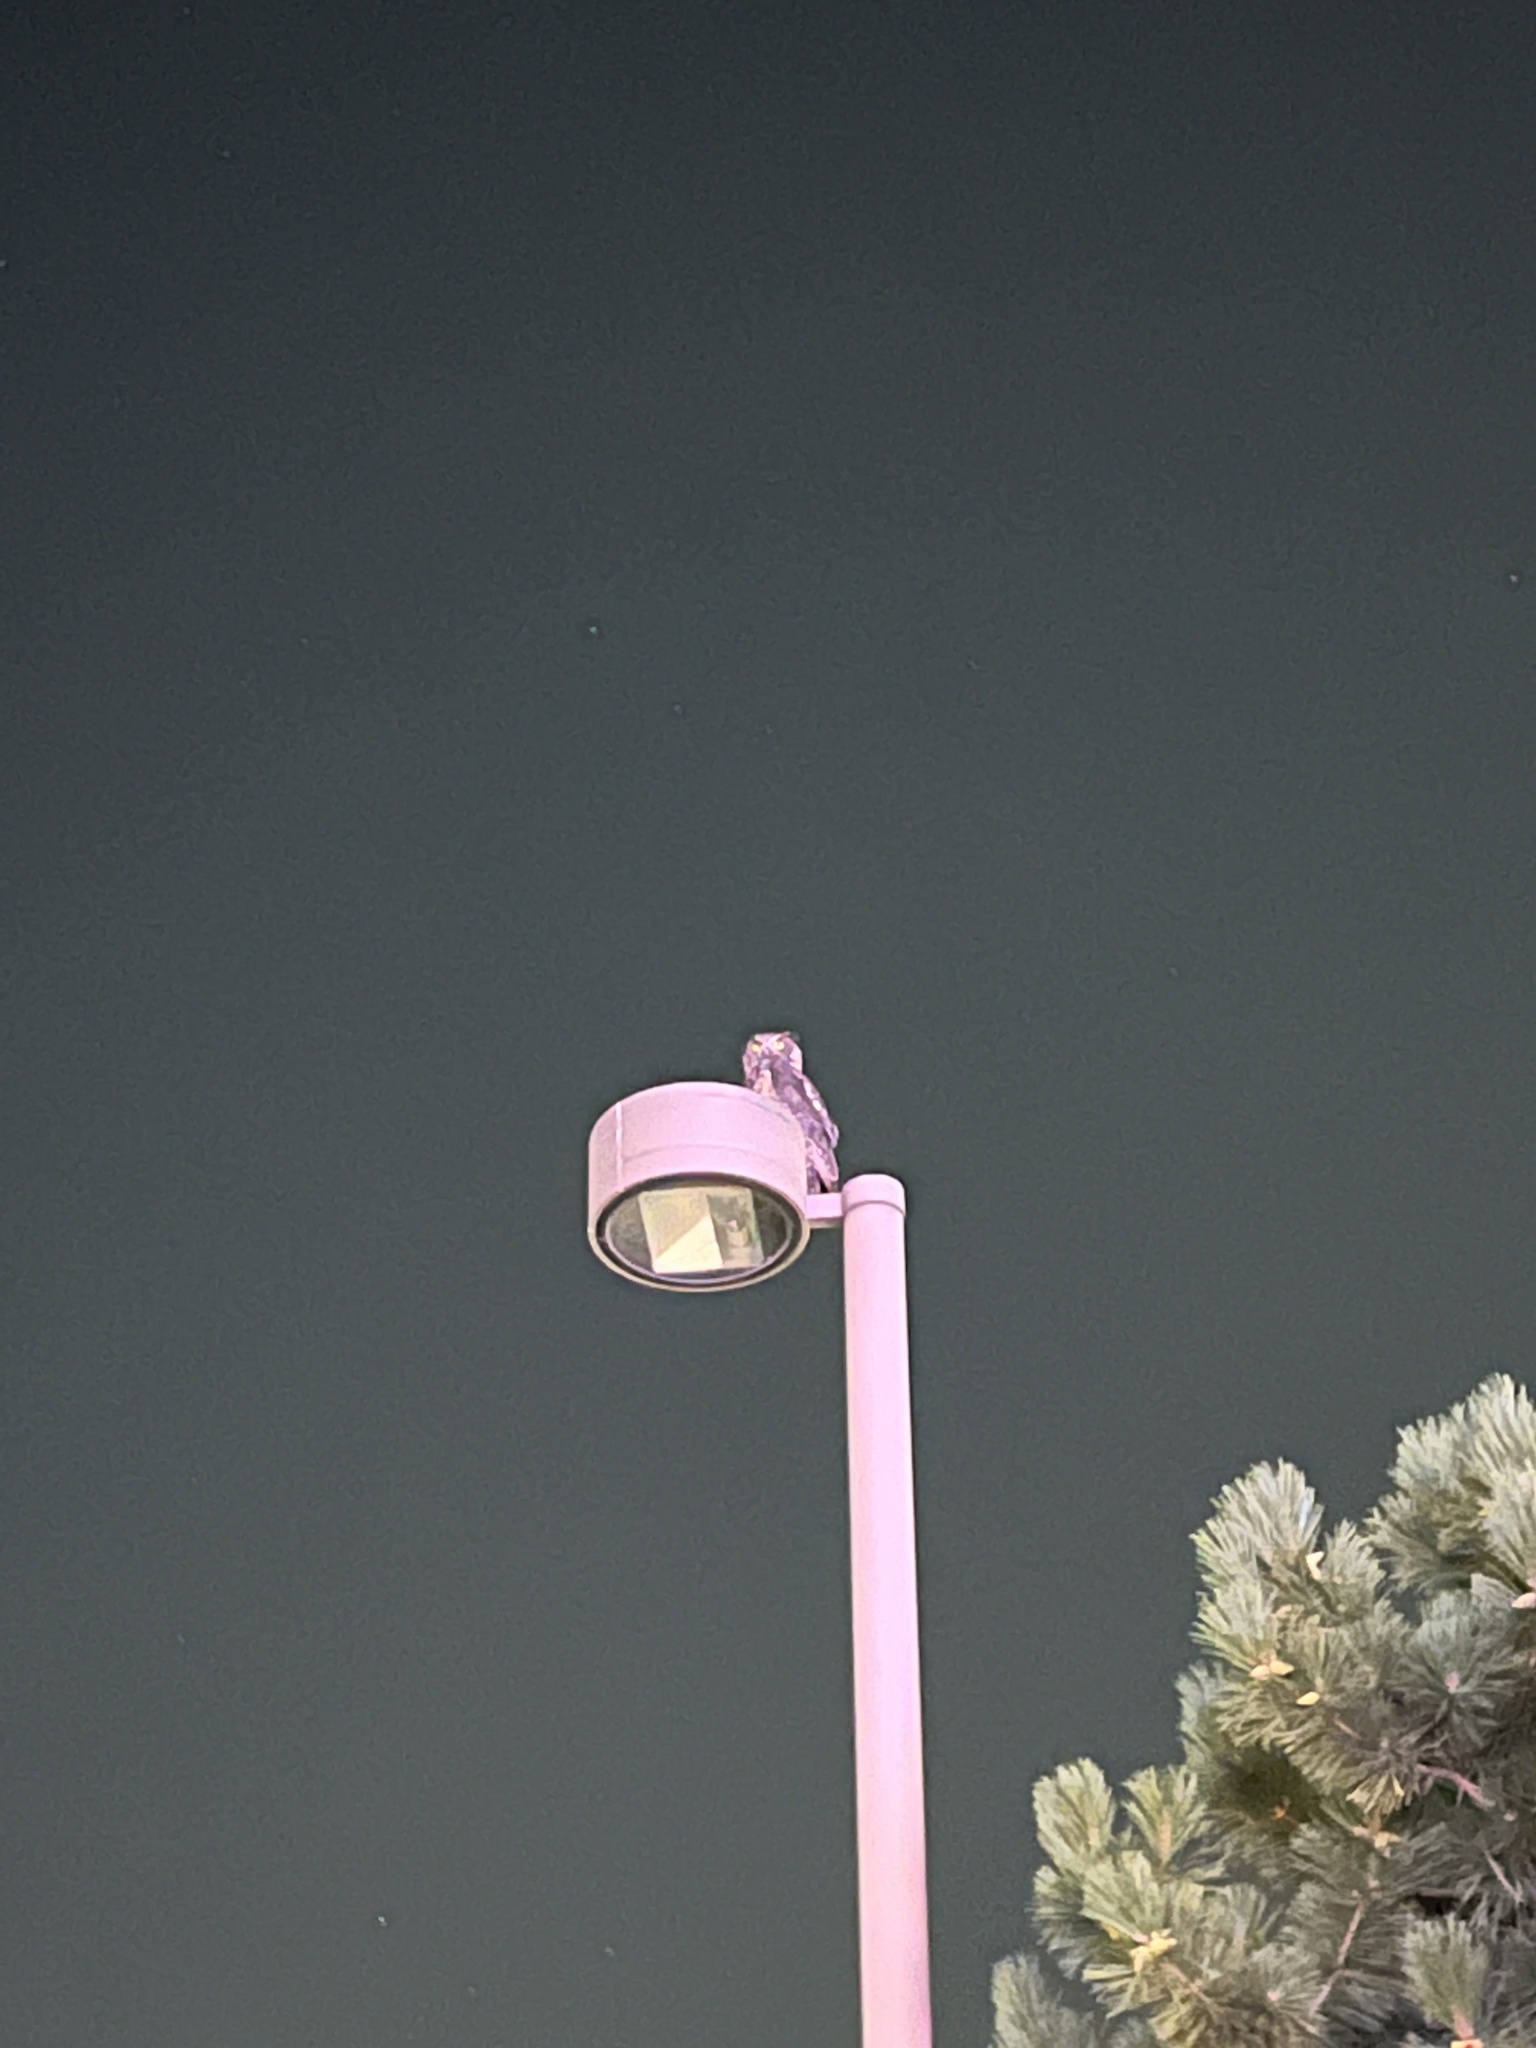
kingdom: Animalia
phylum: Chordata
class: Aves
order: Strigiformes
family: Strigidae
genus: Bubo
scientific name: Bubo virginianus
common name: Great horned owl
